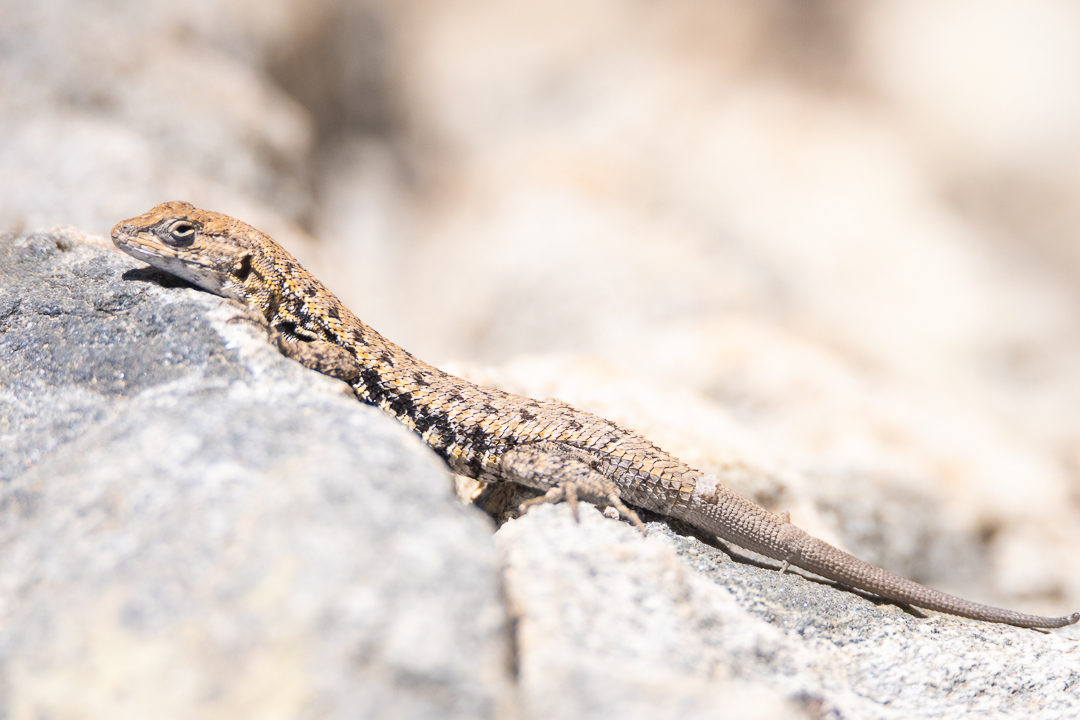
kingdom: Animalia
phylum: Chordata
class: Squamata
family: Liolaemidae
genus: Liolaemus
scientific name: Liolaemus platei
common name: Braided tree iguana
